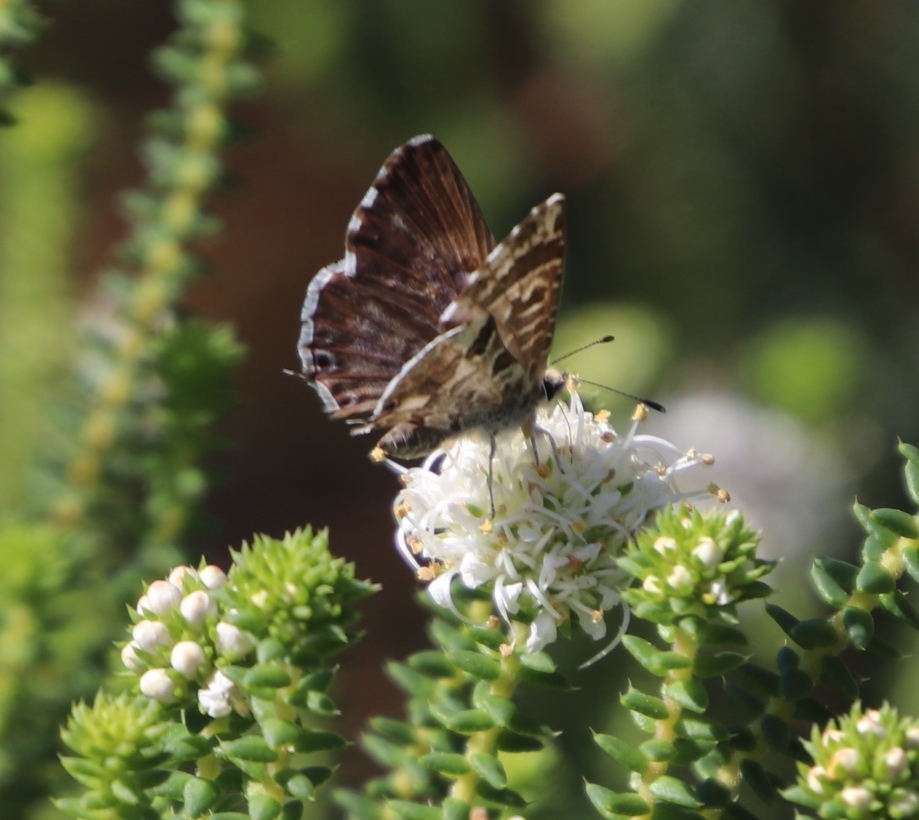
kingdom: Animalia
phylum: Arthropoda
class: Insecta
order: Lepidoptera
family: Lycaenidae
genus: Cacyreus
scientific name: Cacyreus lingeus
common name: Bush bronze
